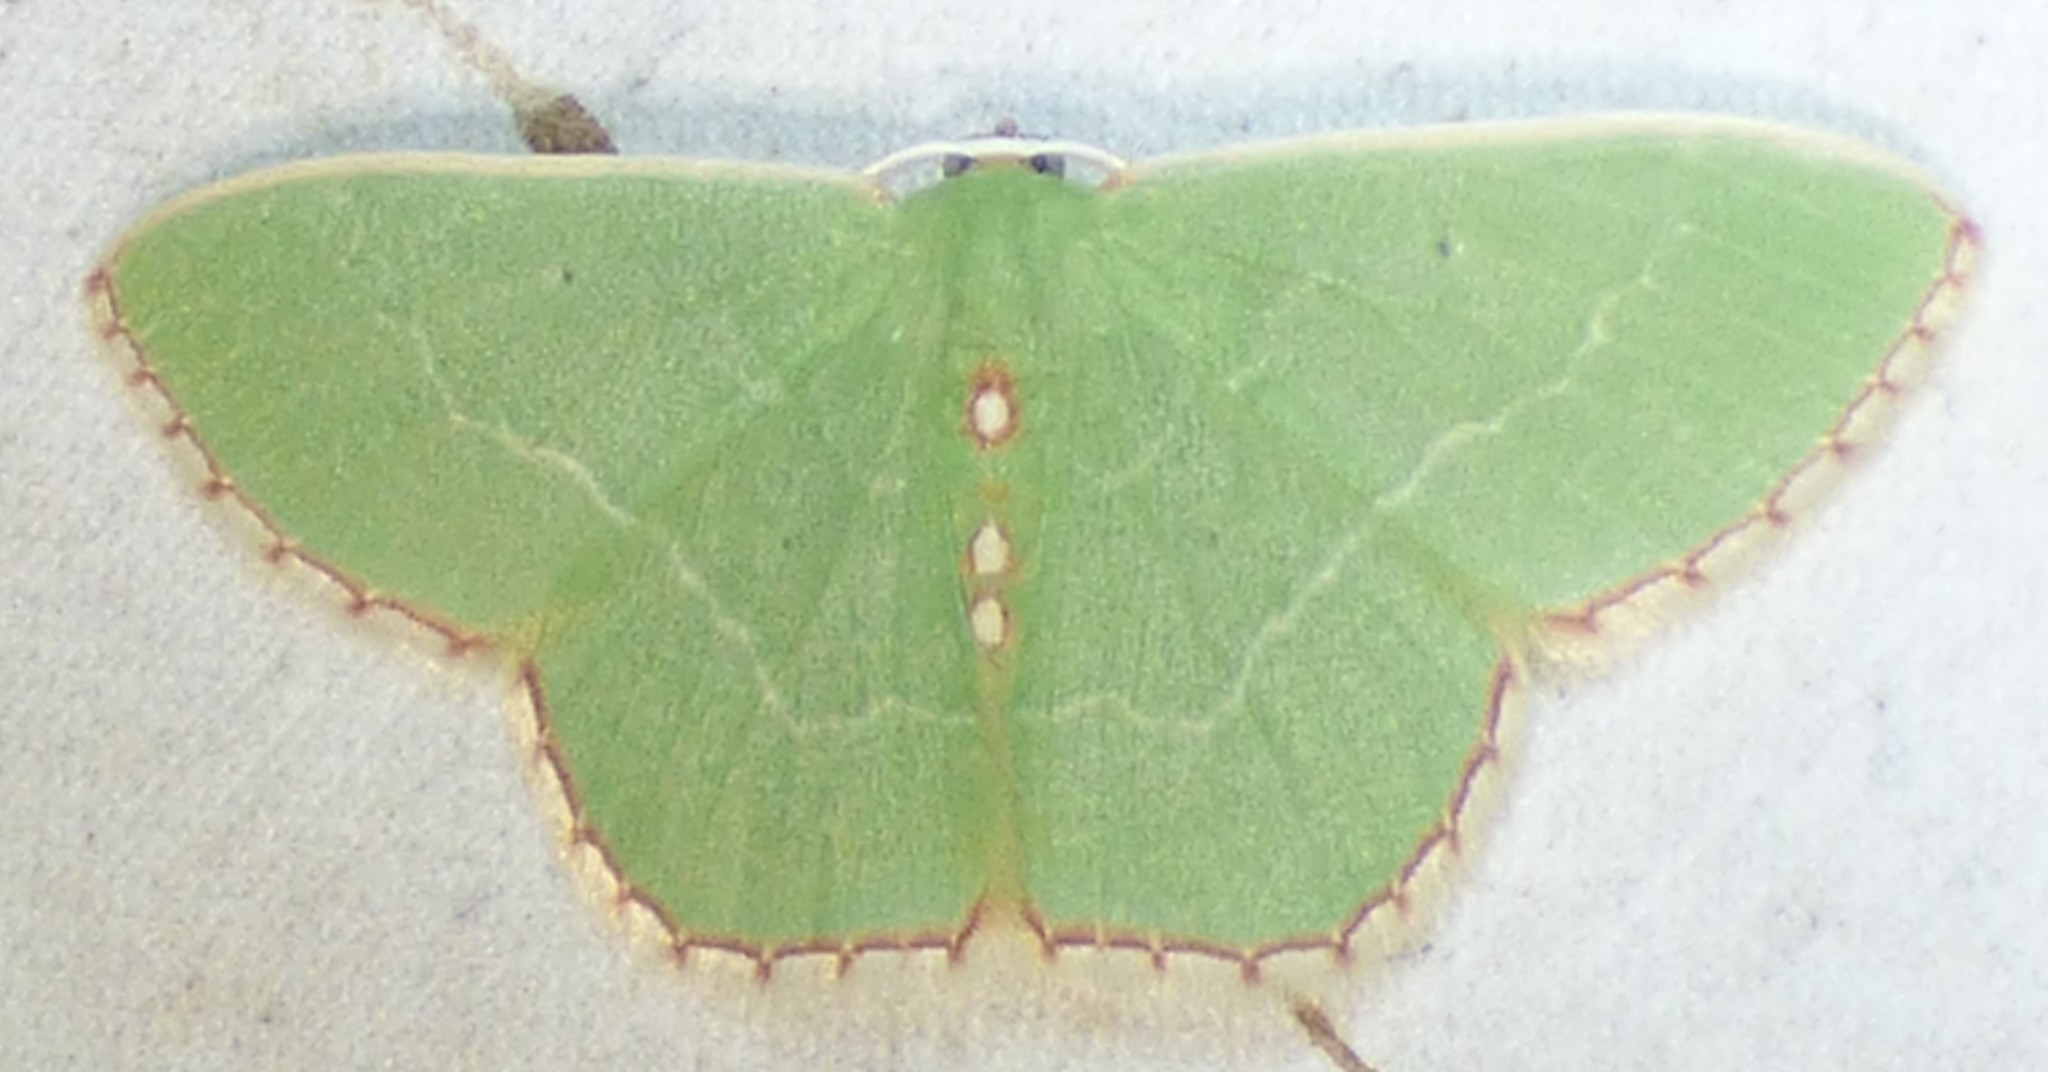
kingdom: Animalia
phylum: Arthropoda
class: Insecta
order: Lepidoptera
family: Geometridae
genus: Nemoria
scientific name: Nemoria lixaria
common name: Red-bordered emerald
